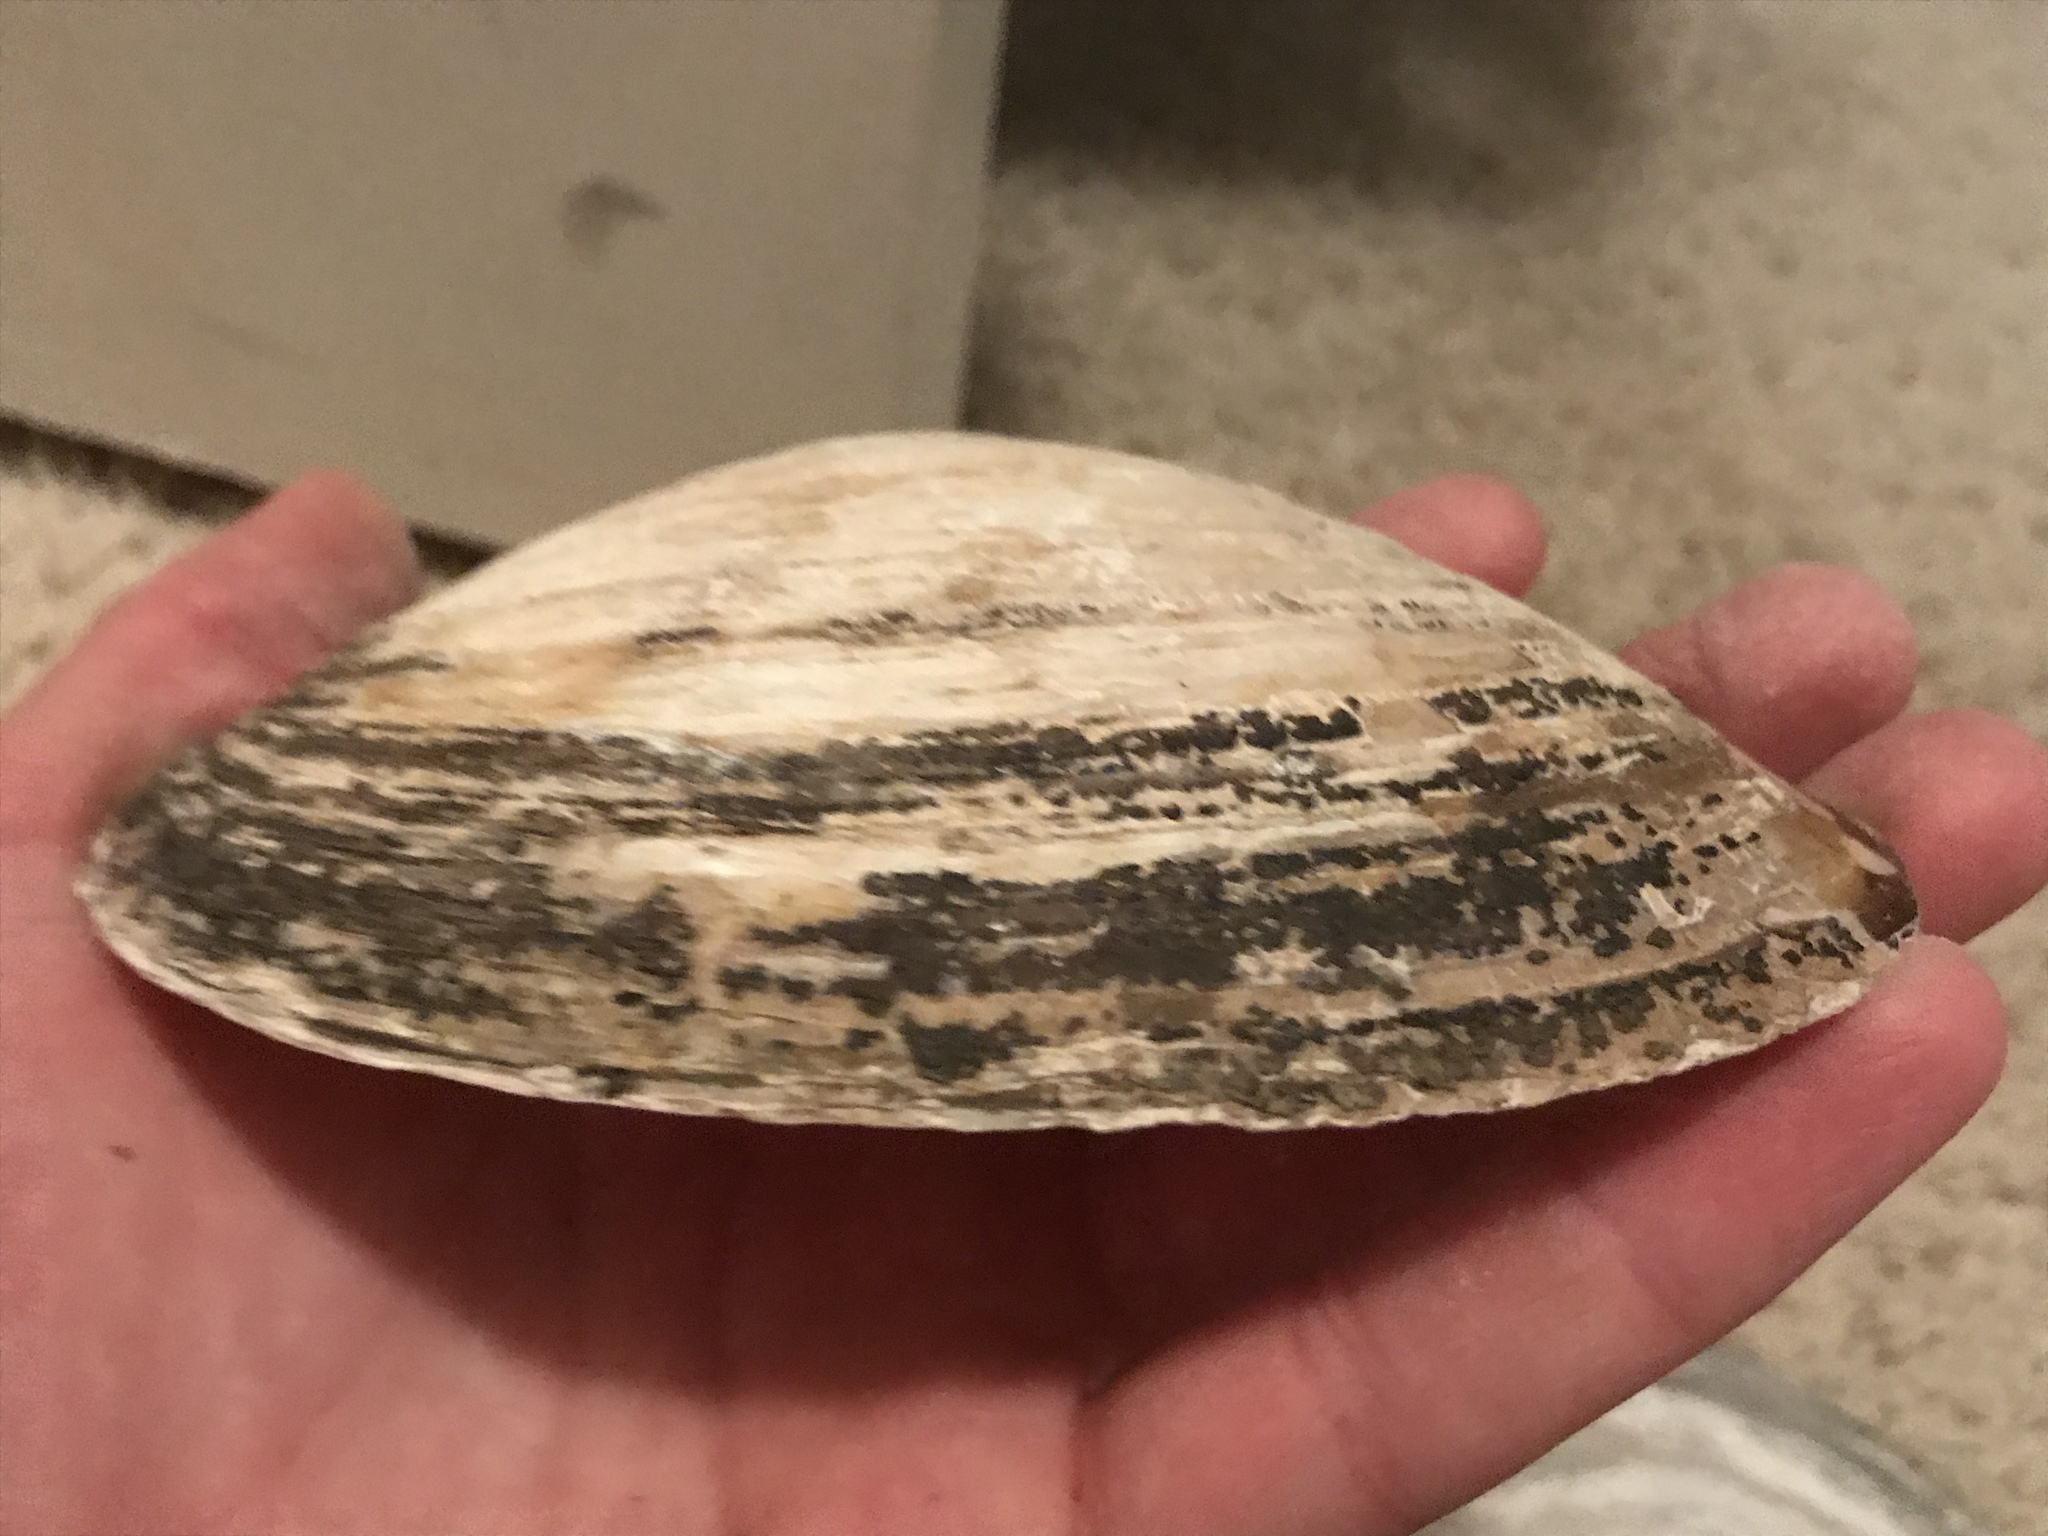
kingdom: Animalia
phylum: Mollusca
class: Bivalvia
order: Unionida
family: Unionidae
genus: Cyrtonaias
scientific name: Cyrtonaias tampicoensis
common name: Tampico pearlymussel
